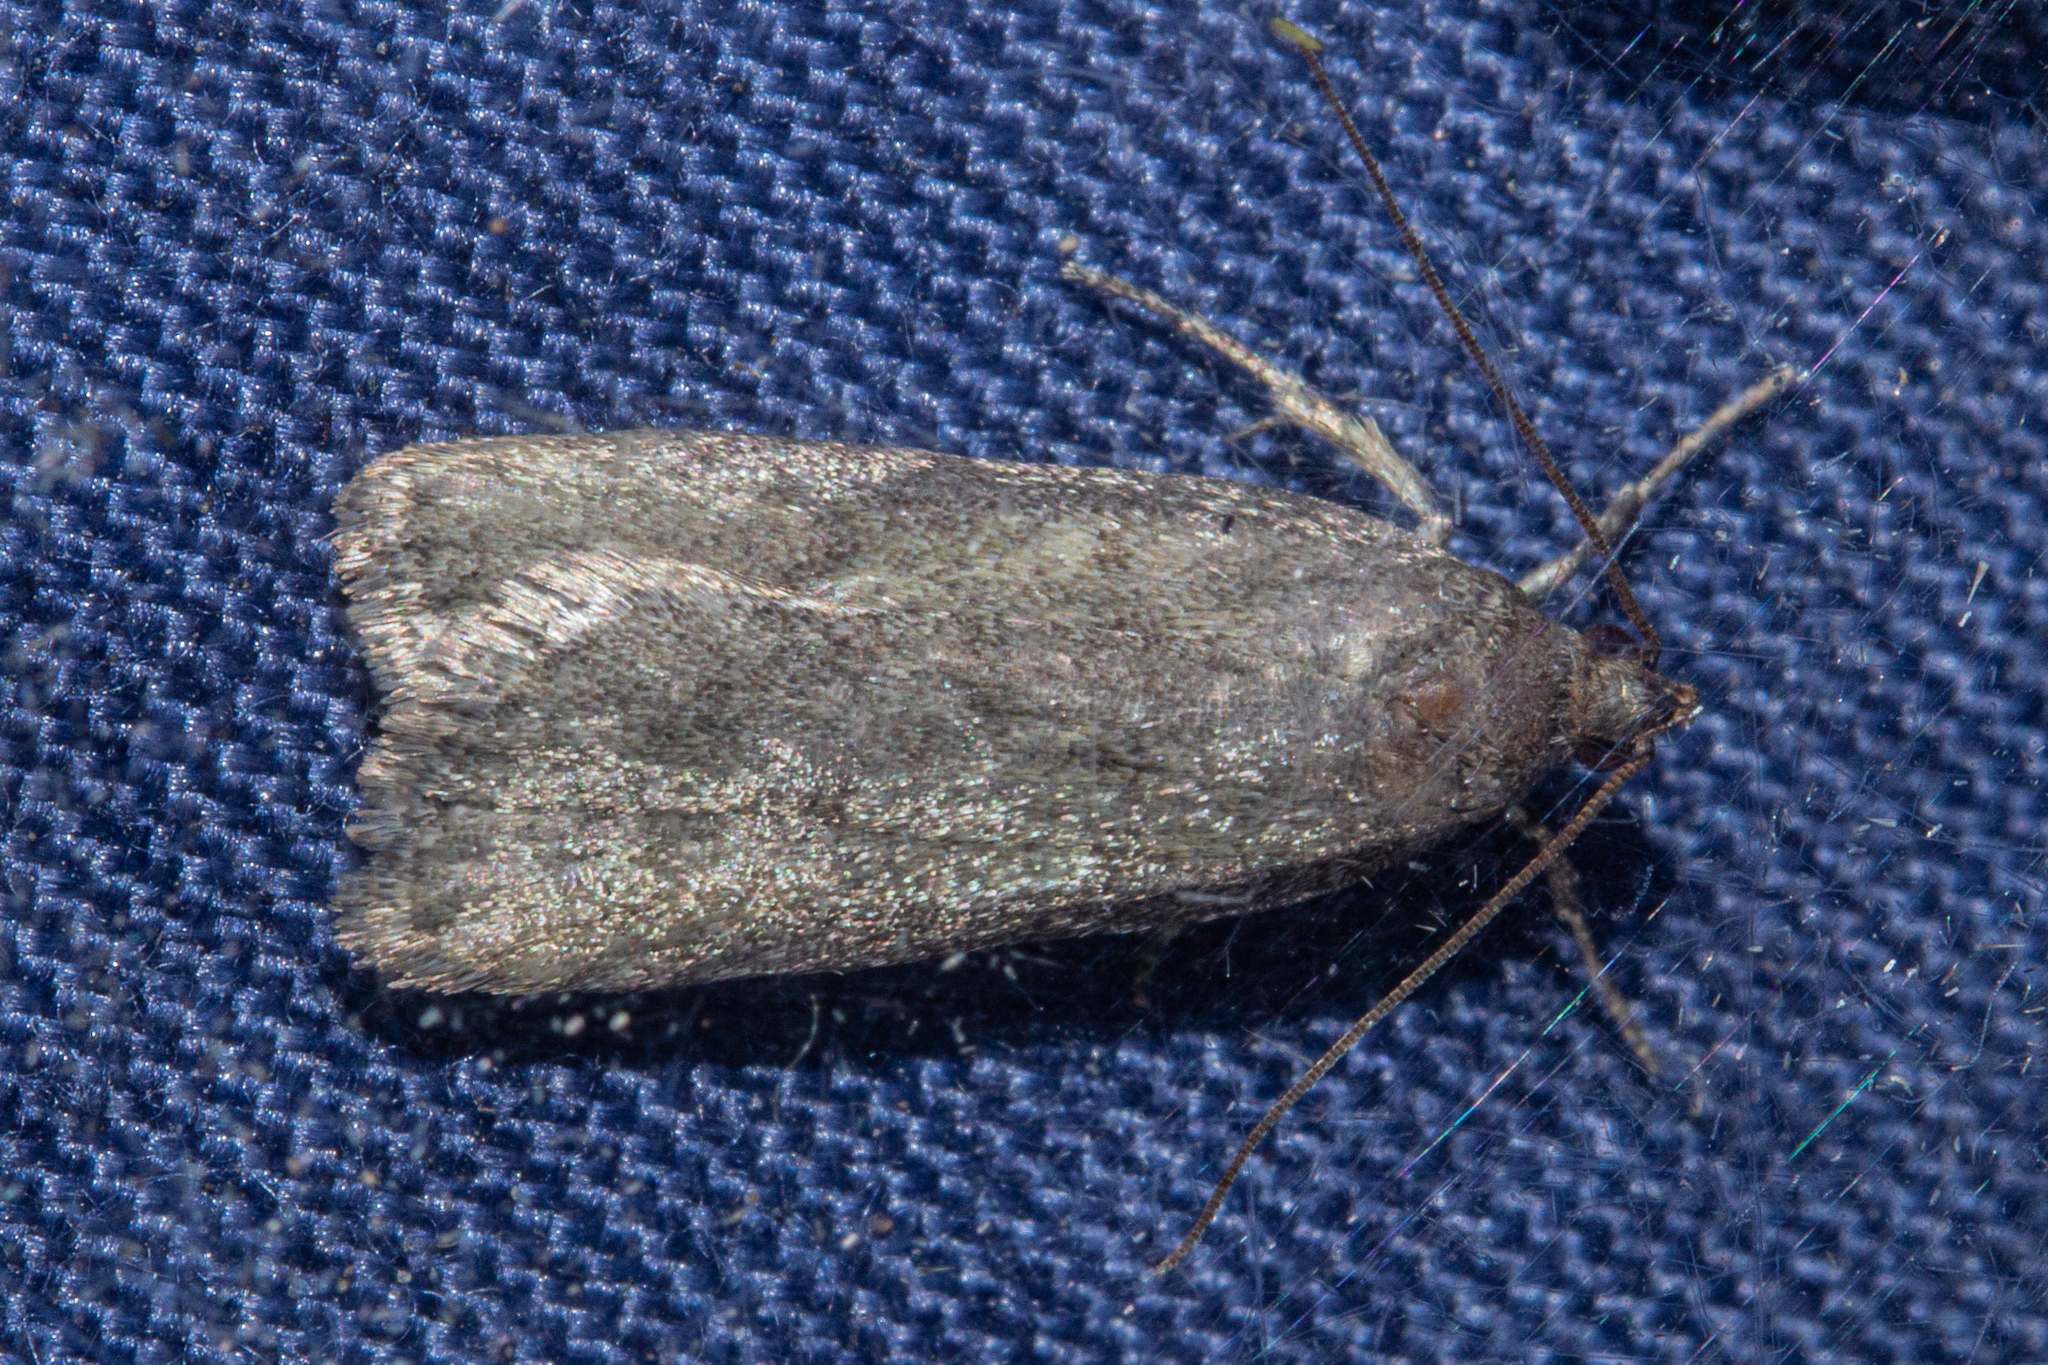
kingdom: Animalia
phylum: Arthropoda
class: Insecta
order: Lepidoptera
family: Depressariidae
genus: Phaeosaces
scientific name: Phaeosaces apocrypta
